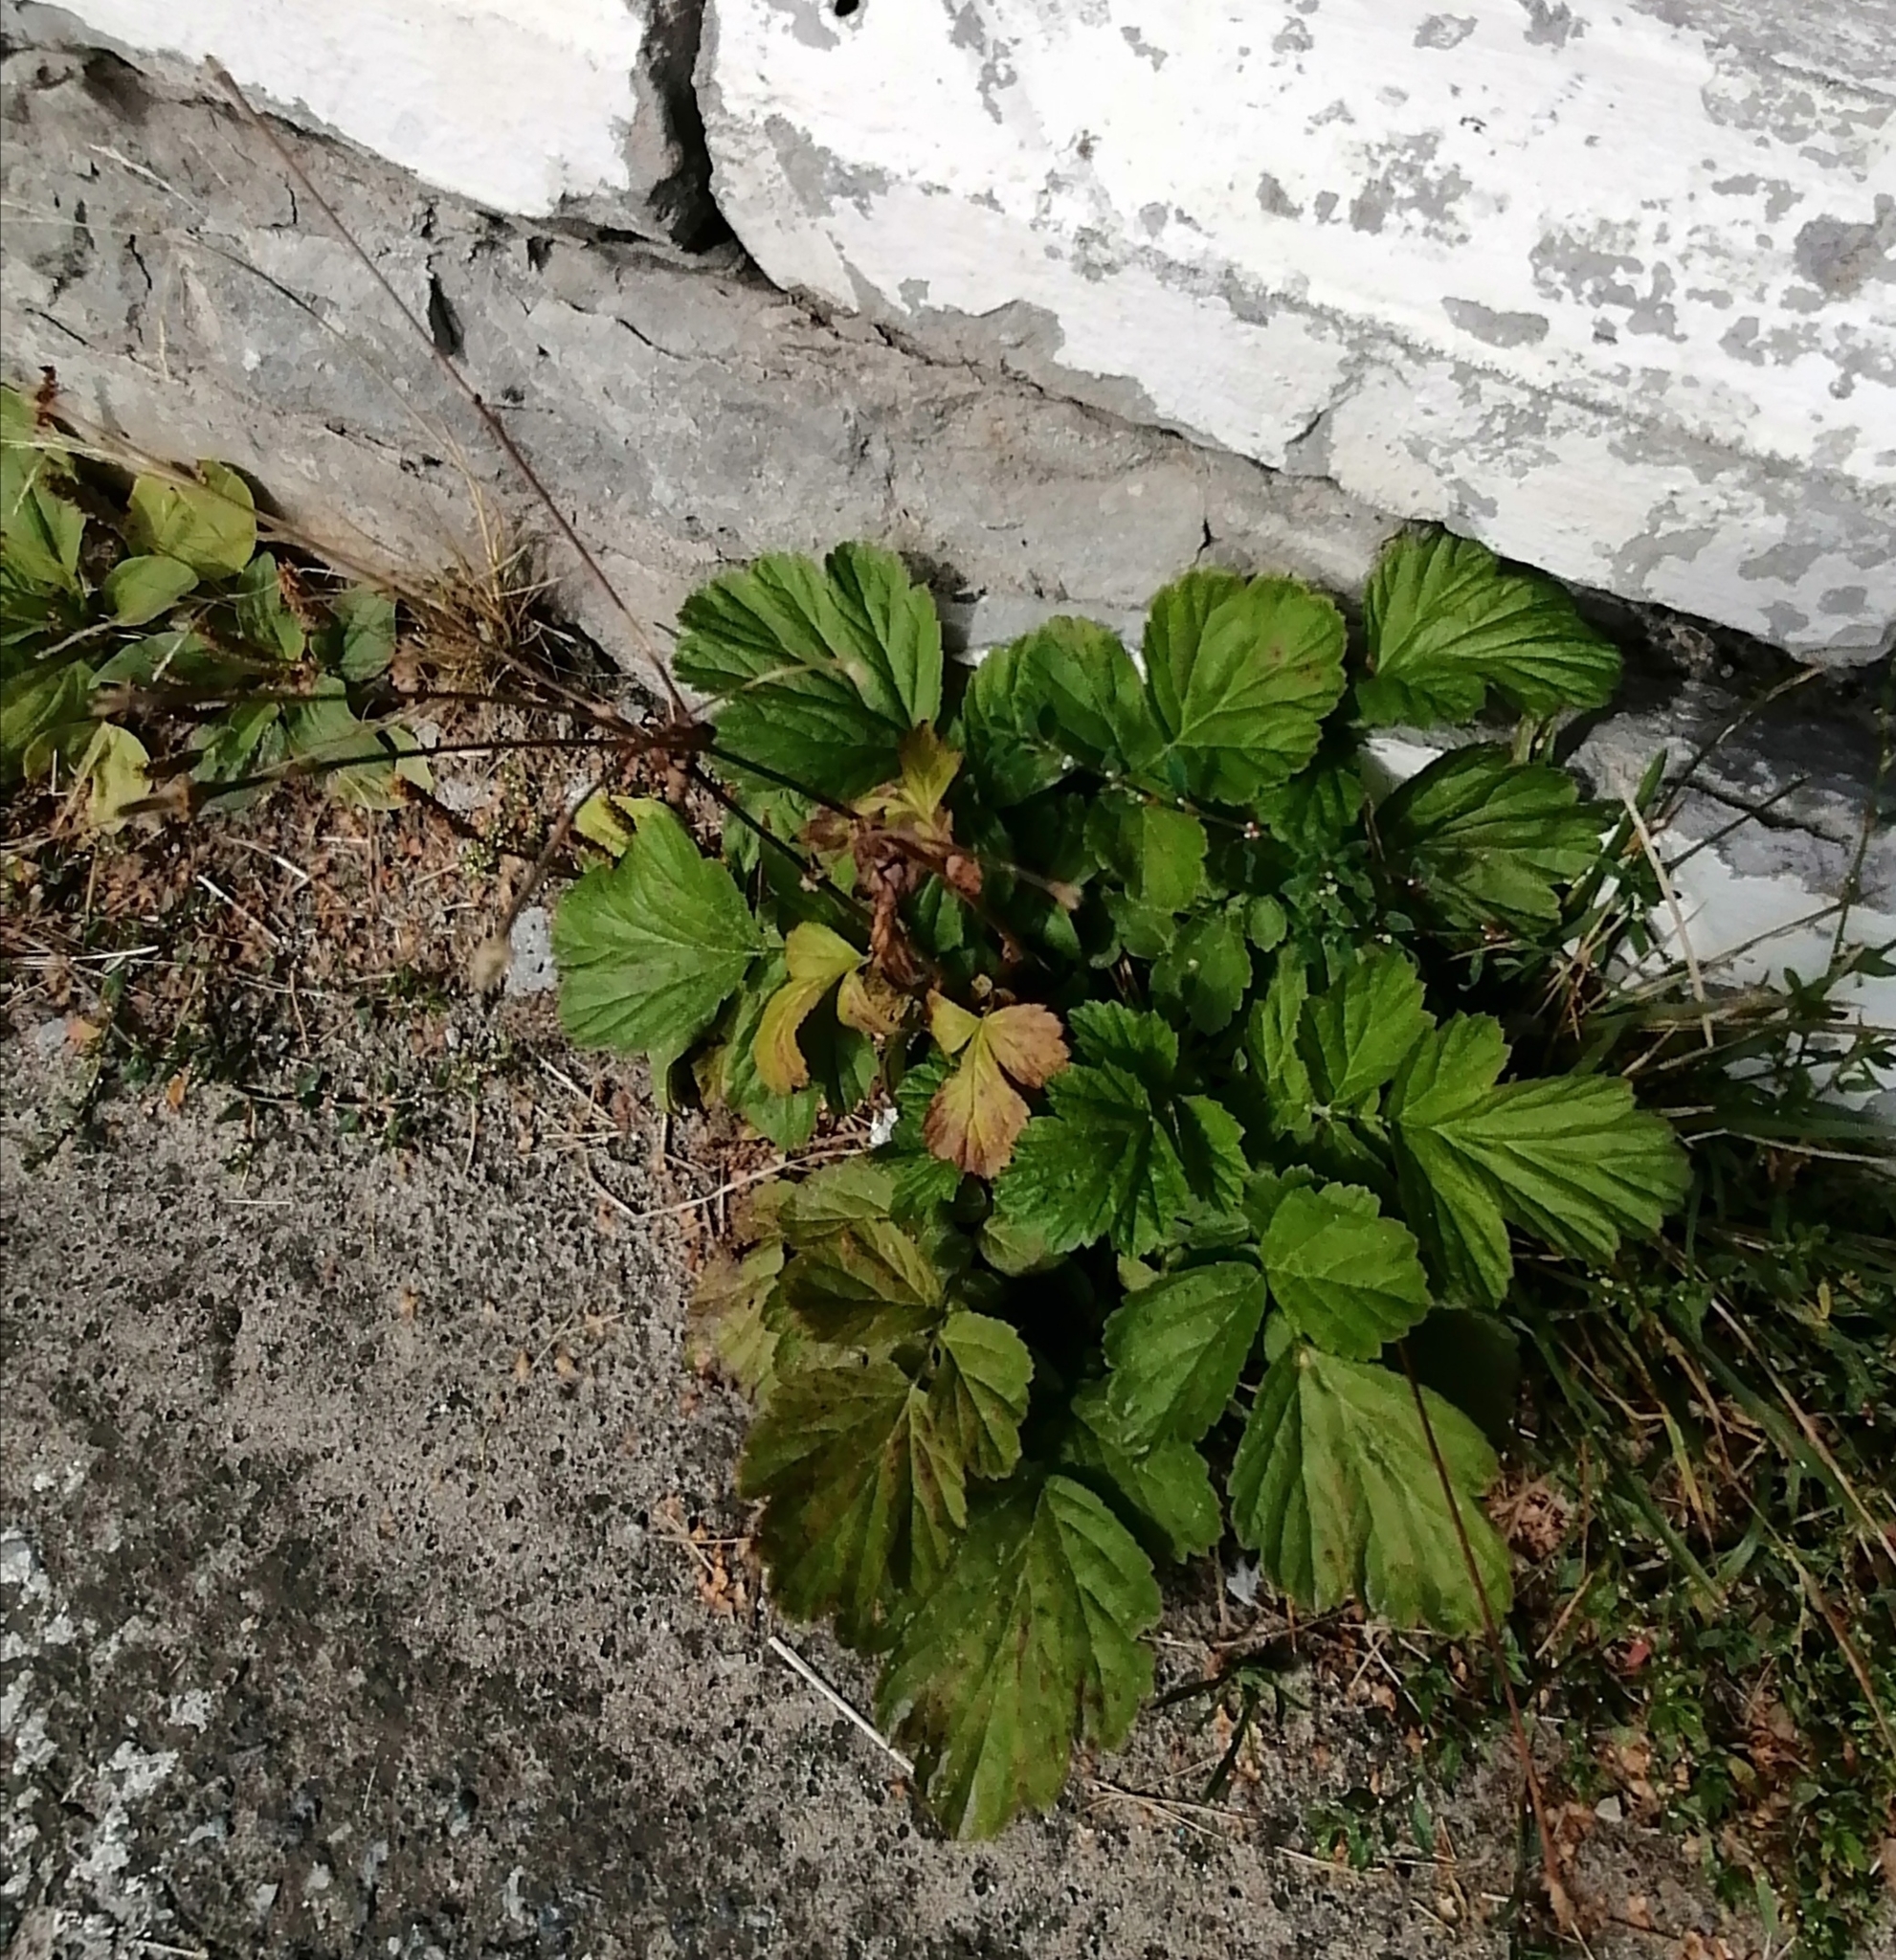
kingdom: Plantae
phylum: Tracheophyta
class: Magnoliopsida
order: Rosales
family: Rosaceae
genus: Geum
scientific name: Geum
